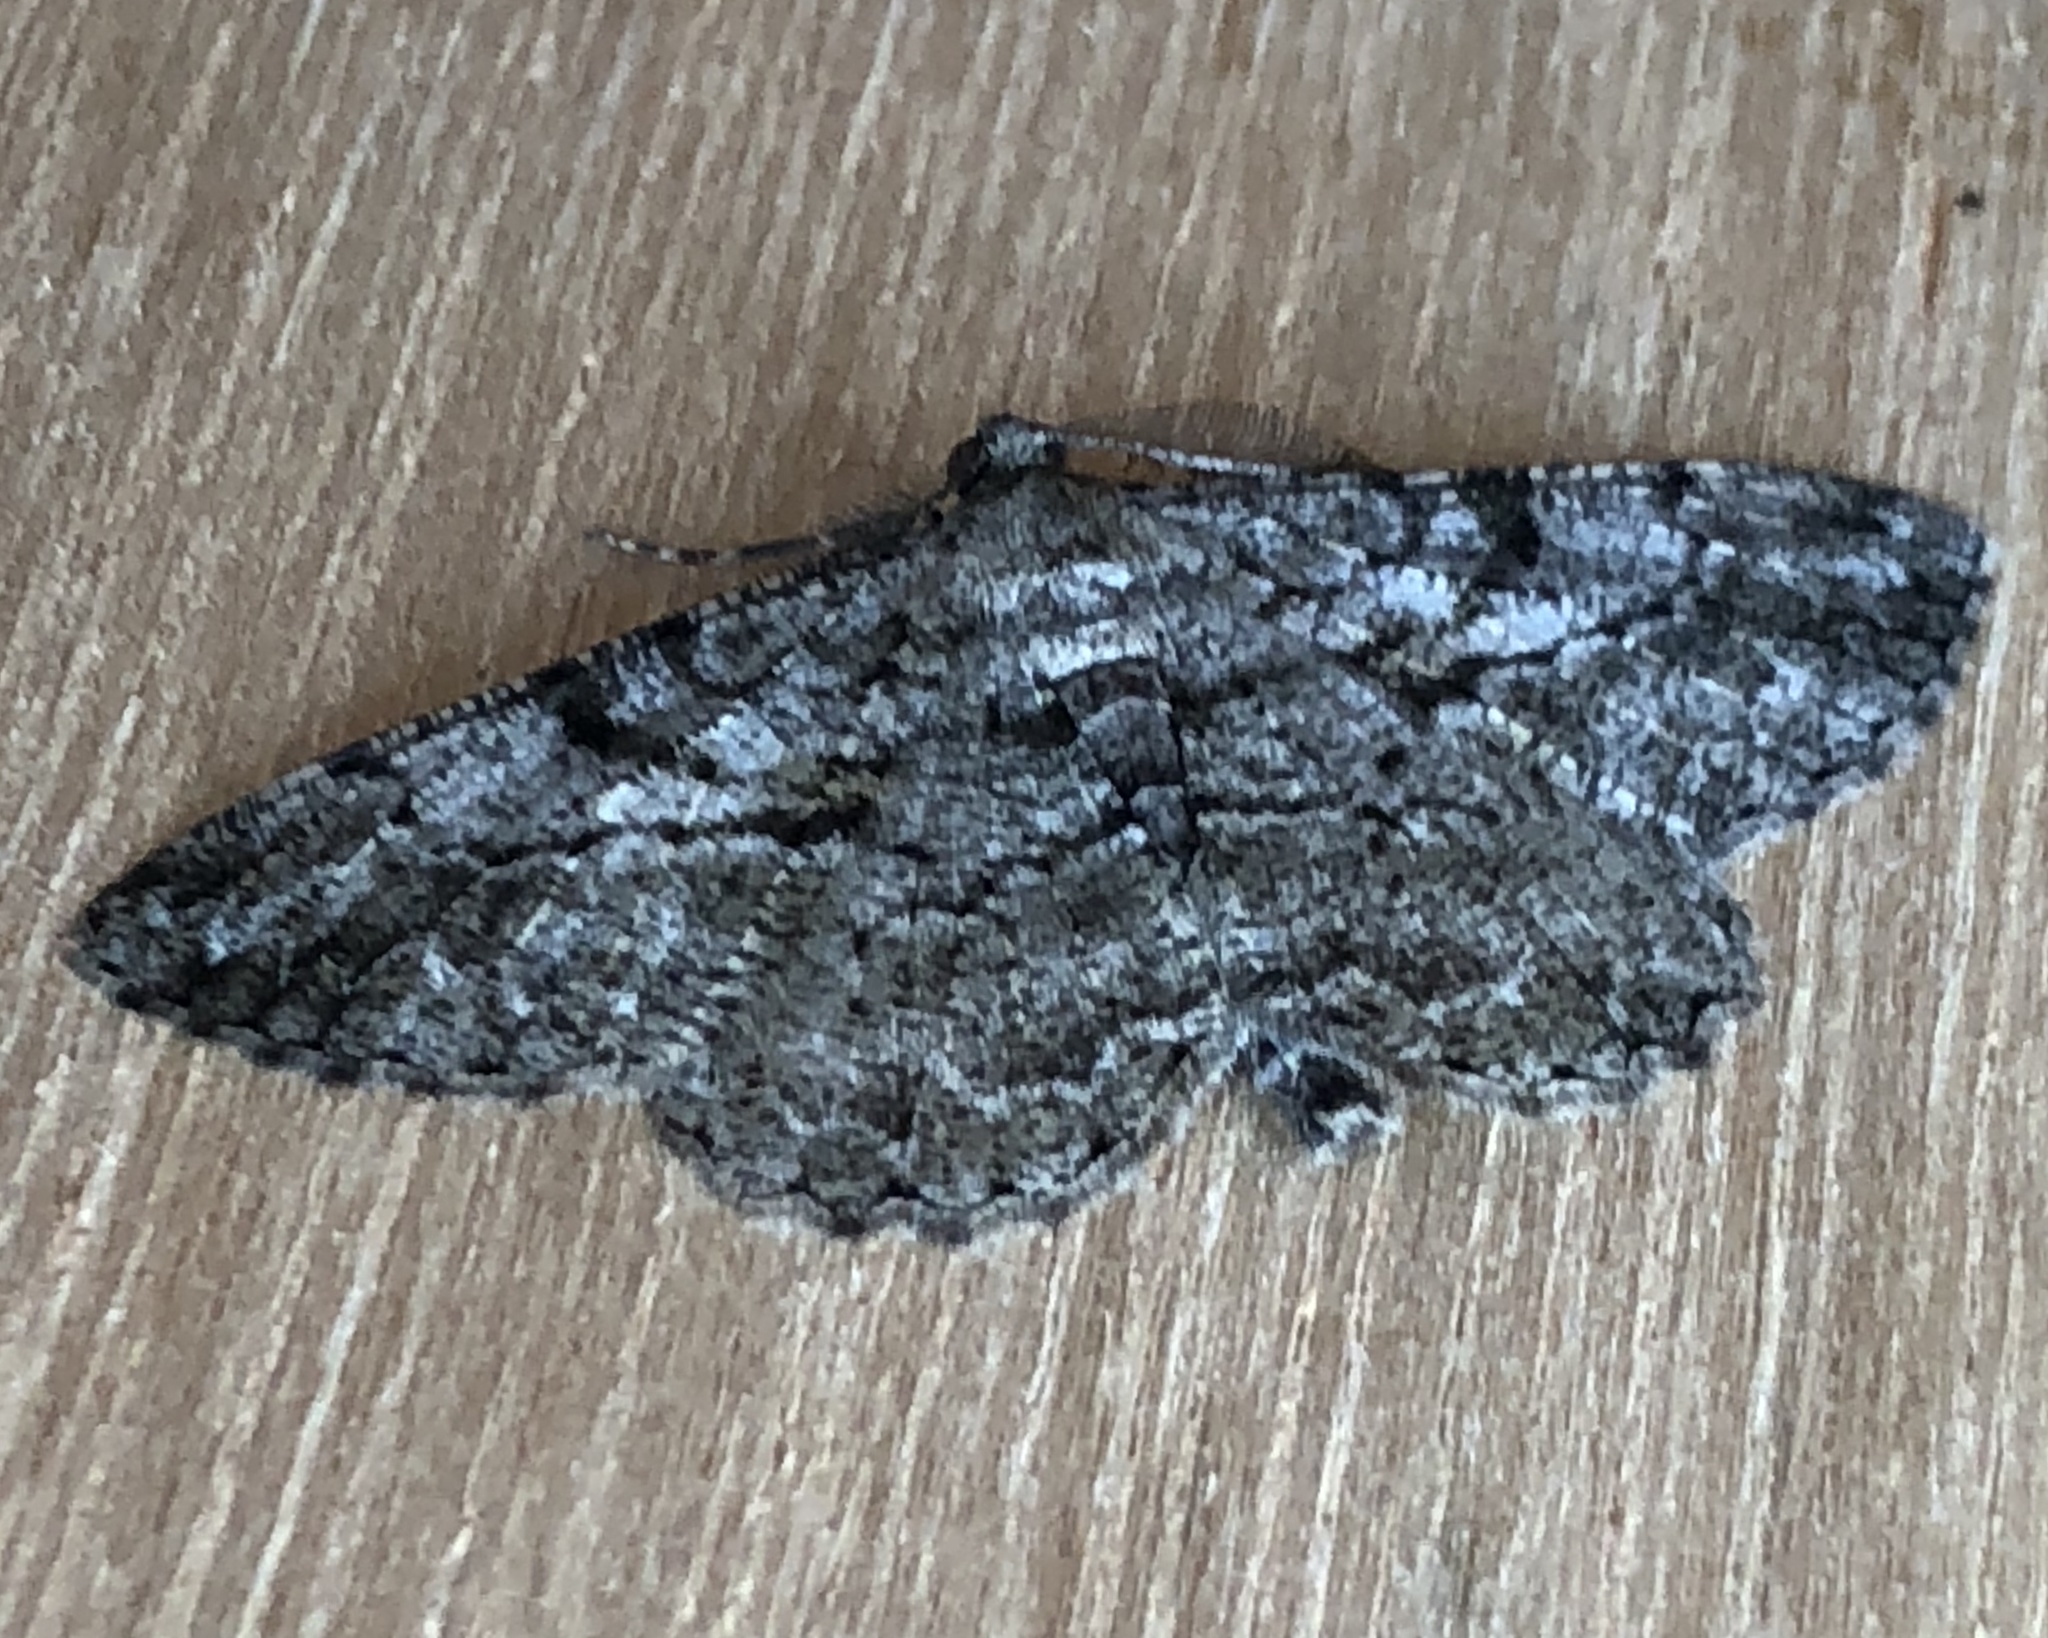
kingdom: Animalia
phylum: Arthropoda
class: Insecta
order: Lepidoptera
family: Geometridae
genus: Peribatodes
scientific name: Peribatodes rhomboidaria
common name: Willow beauty
